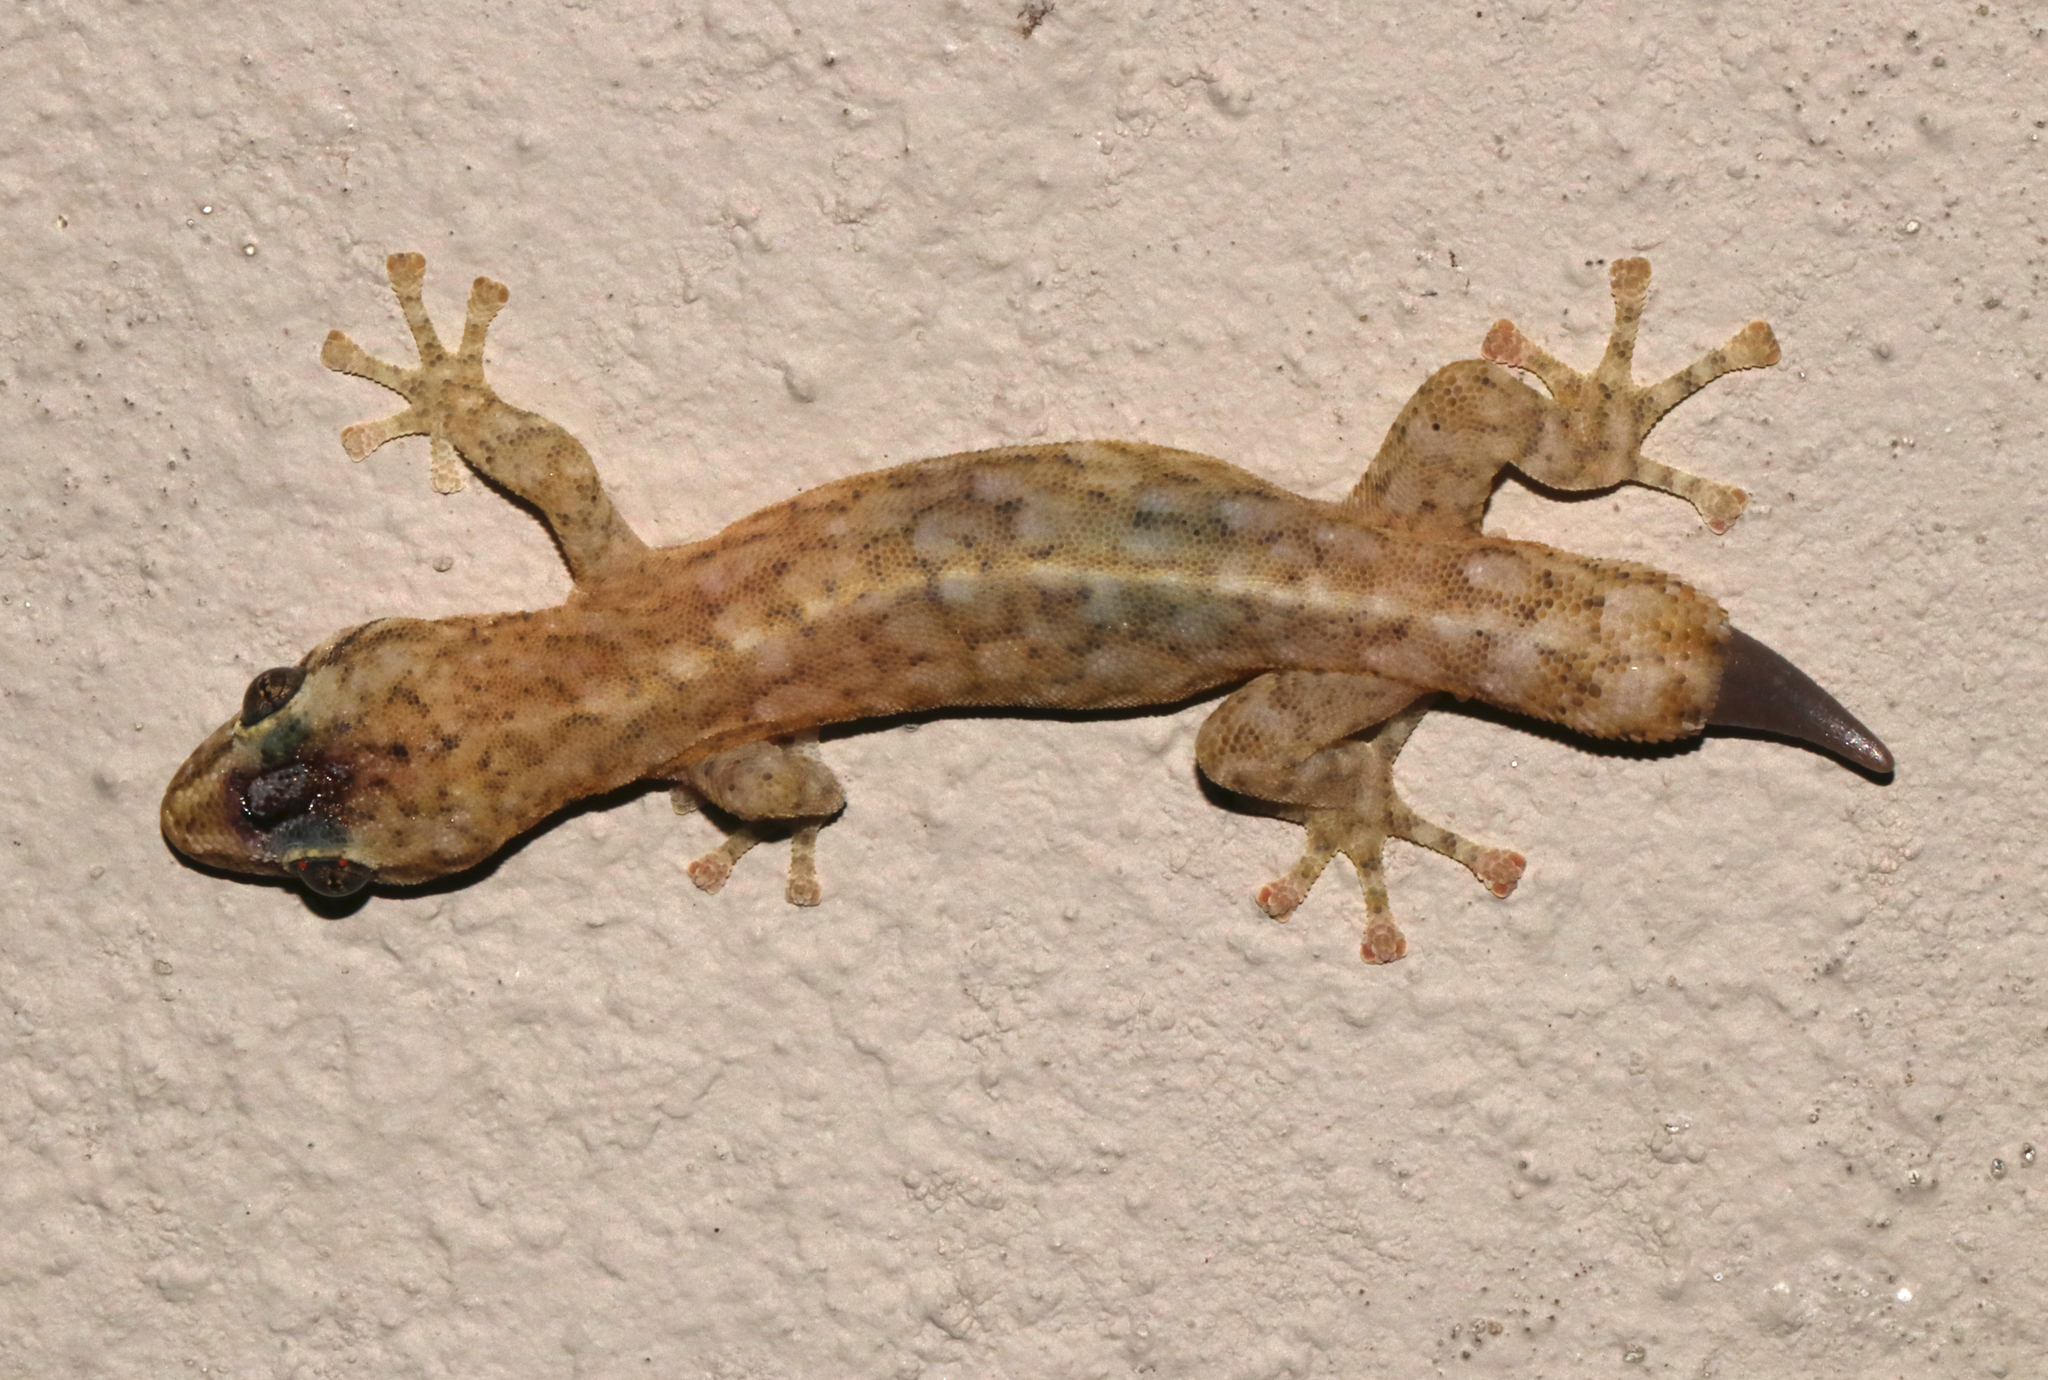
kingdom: Animalia
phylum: Chordata
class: Squamata
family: Gekkonidae
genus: Afrogecko
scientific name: Afrogecko porphyreus
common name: Marbled leaf-toed gecko
